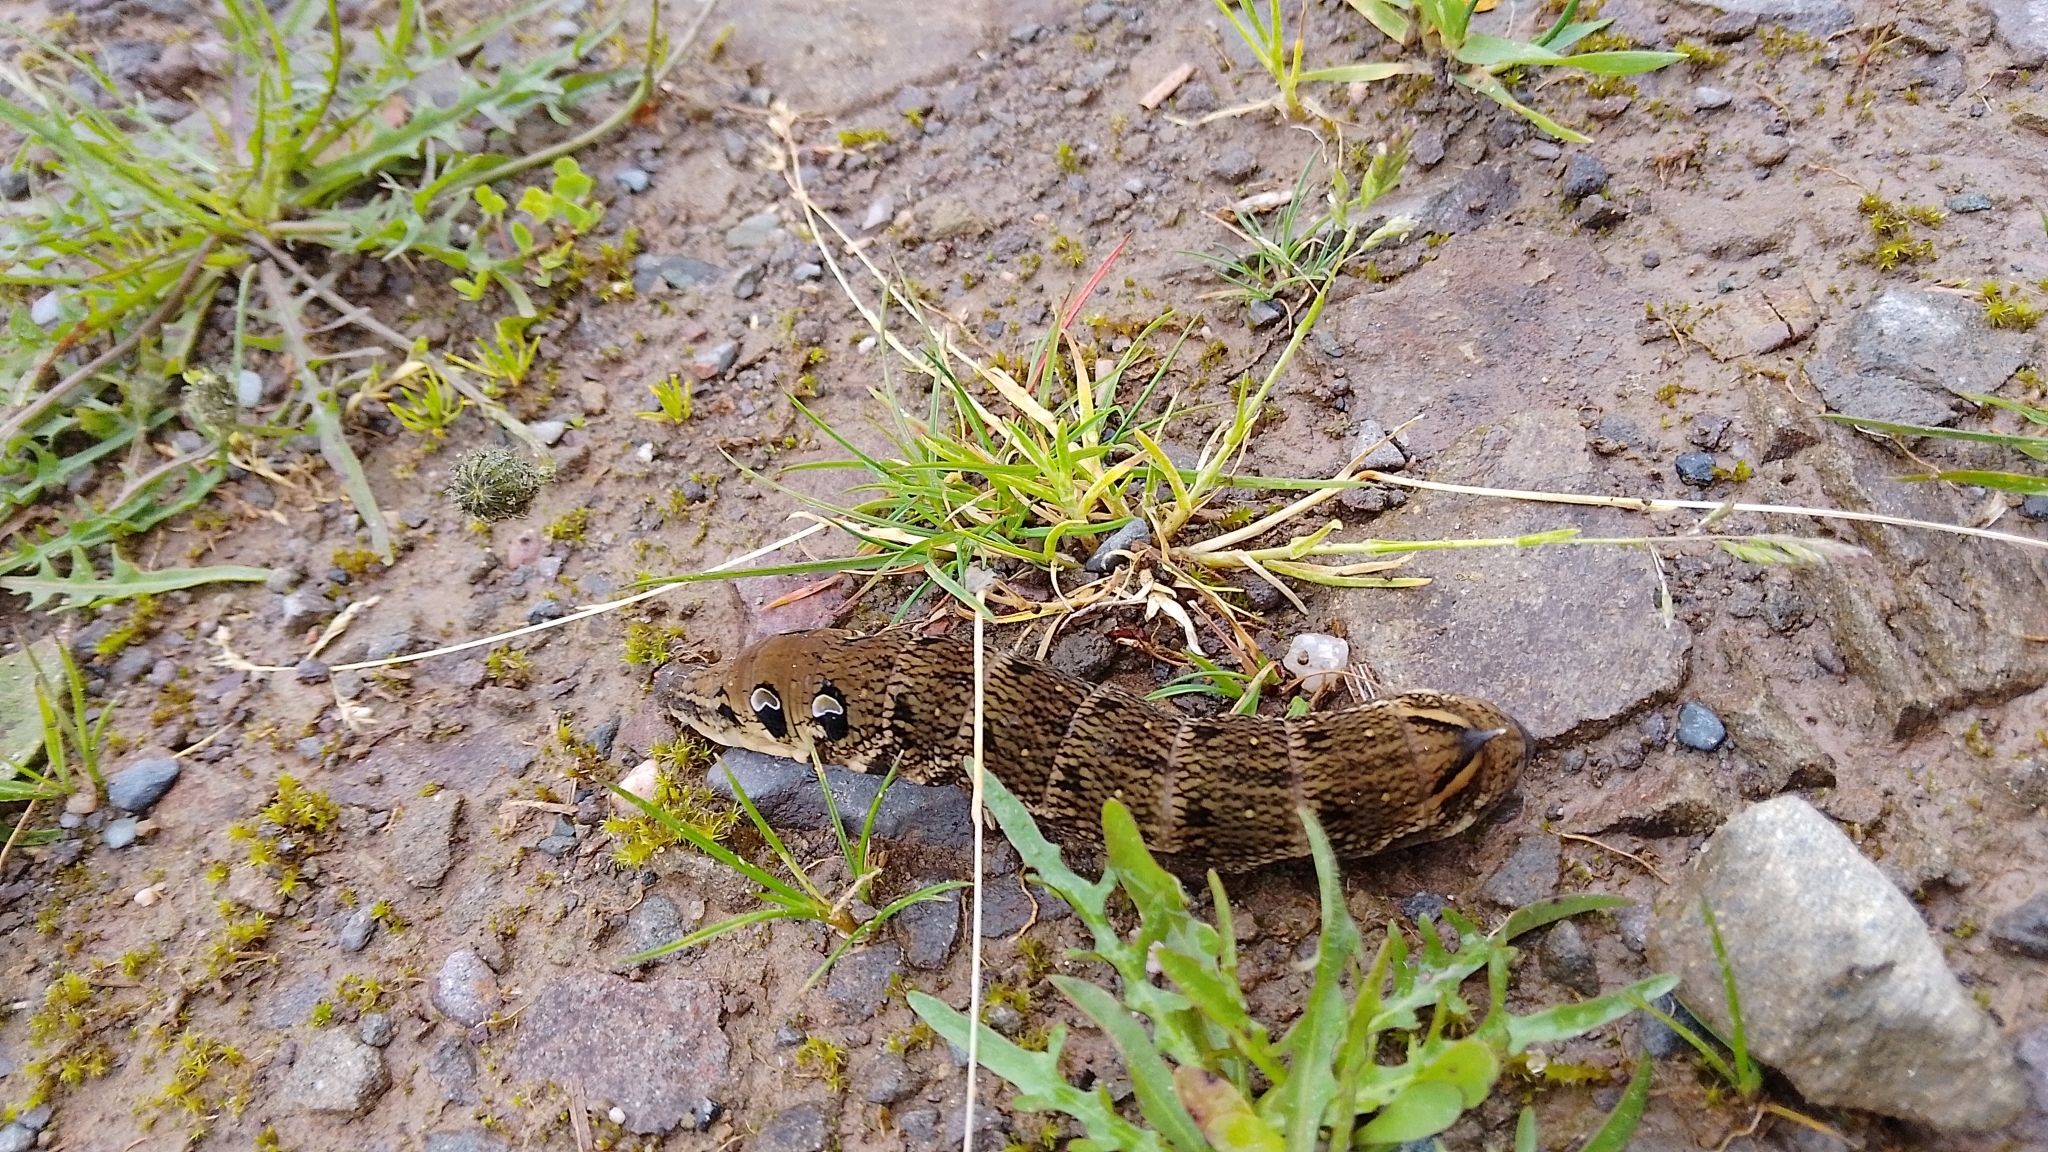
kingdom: Animalia
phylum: Arthropoda
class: Insecta
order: Lepidoptera
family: Sphingidae
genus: Deilephila
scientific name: Deilephila elpenor
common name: Elephant hawk-moth
